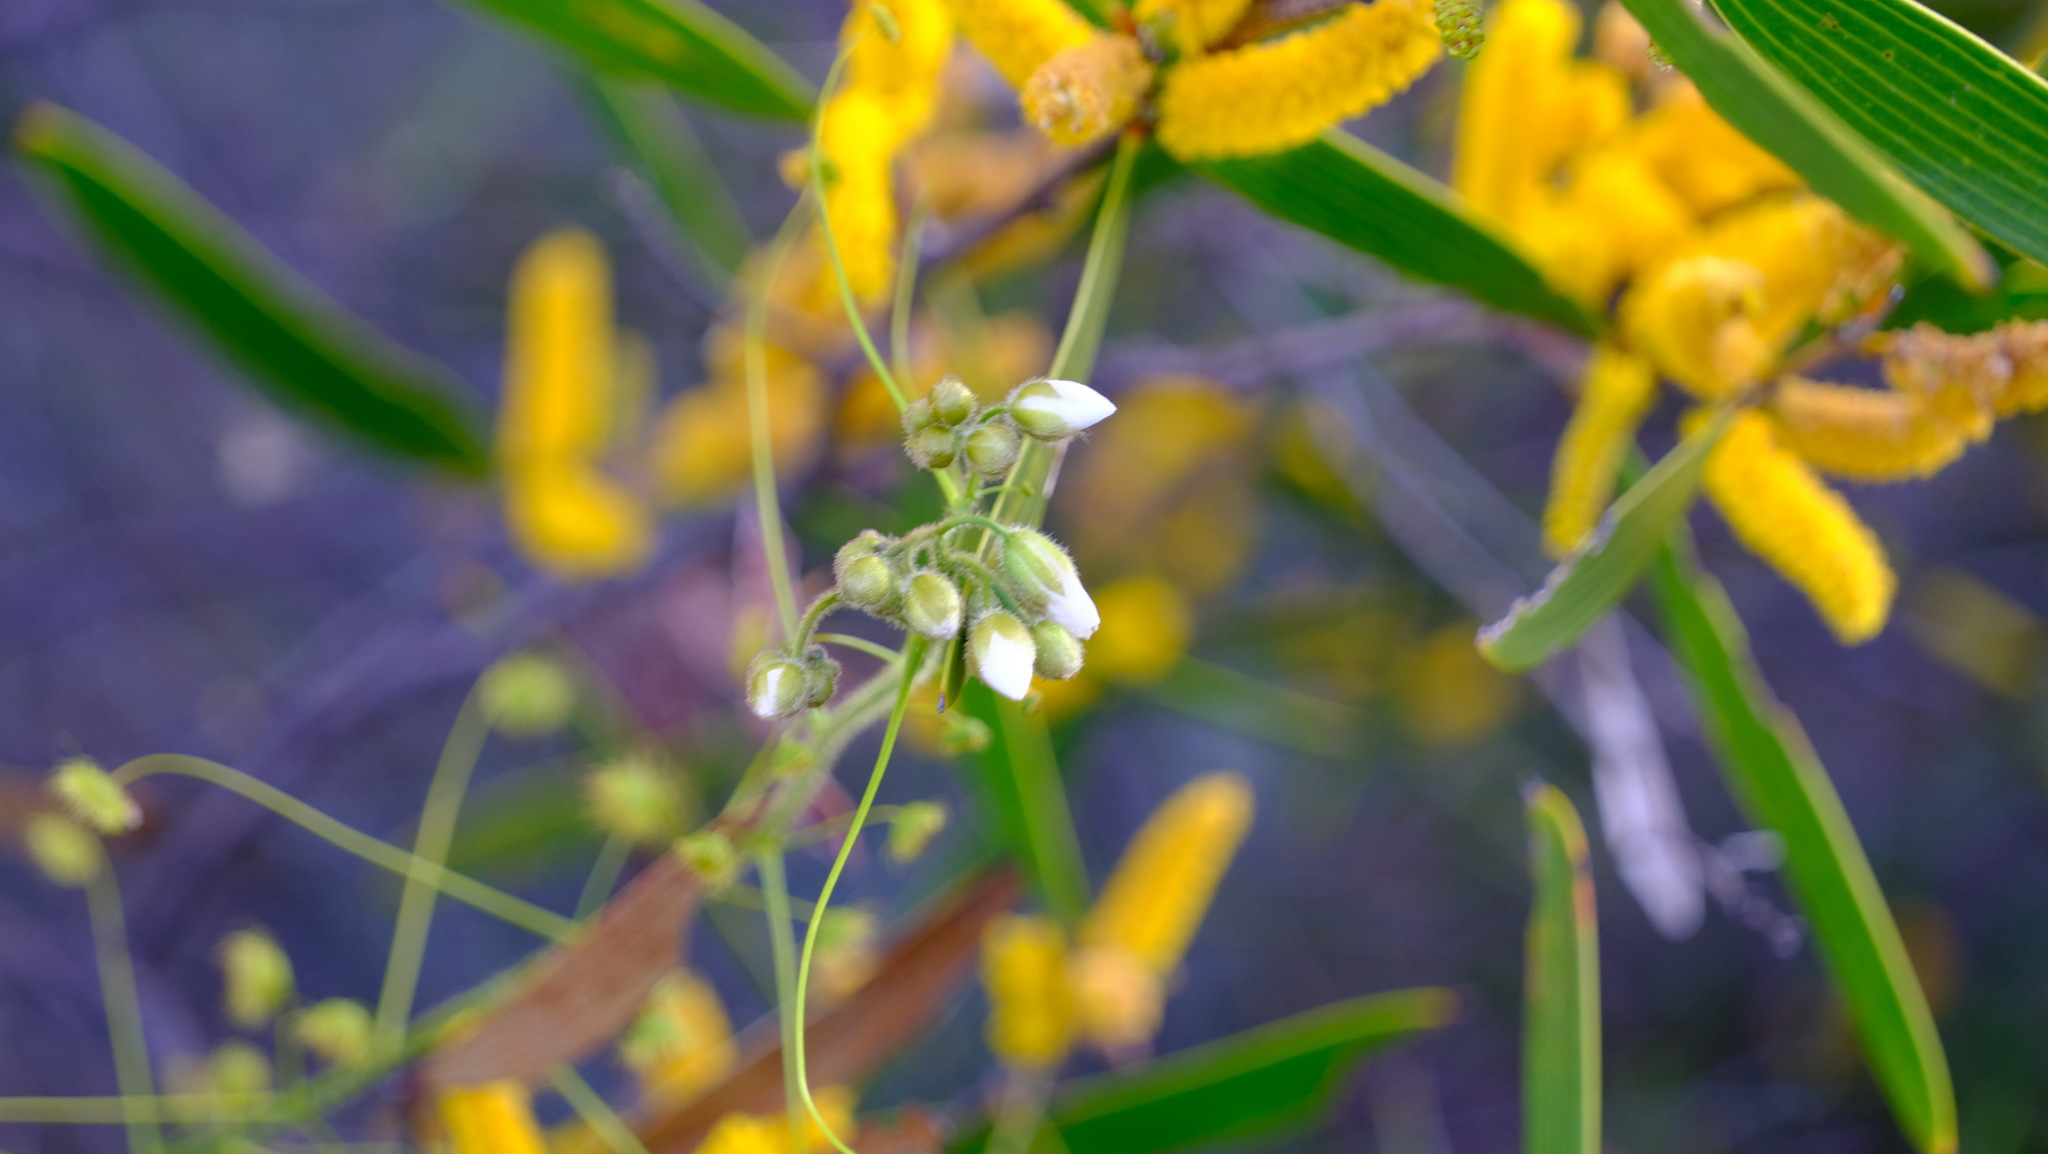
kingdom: Plantae
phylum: Tracheophyta
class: Magnoliopsida
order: Caryophyllales
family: Droseraceae
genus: Drosera
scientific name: Drosera hirsuta
